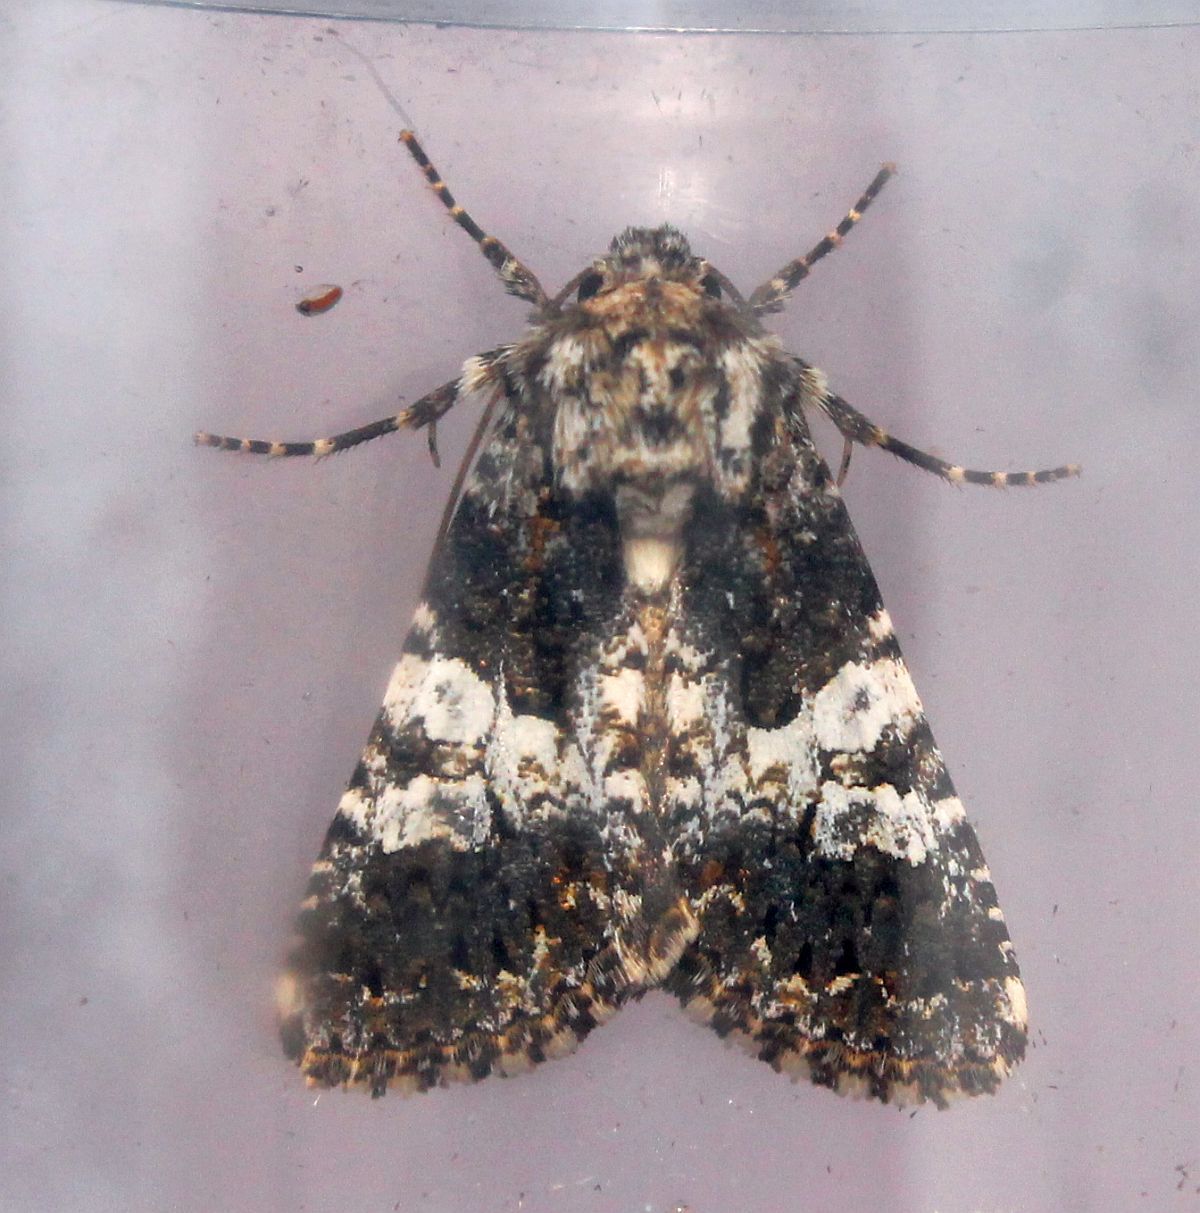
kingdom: Animalia
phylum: Arthropoda
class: Insecta
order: Lepidoptera
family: Noctuidae
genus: Hadena
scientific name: Hadena compta
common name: Varied coronet
